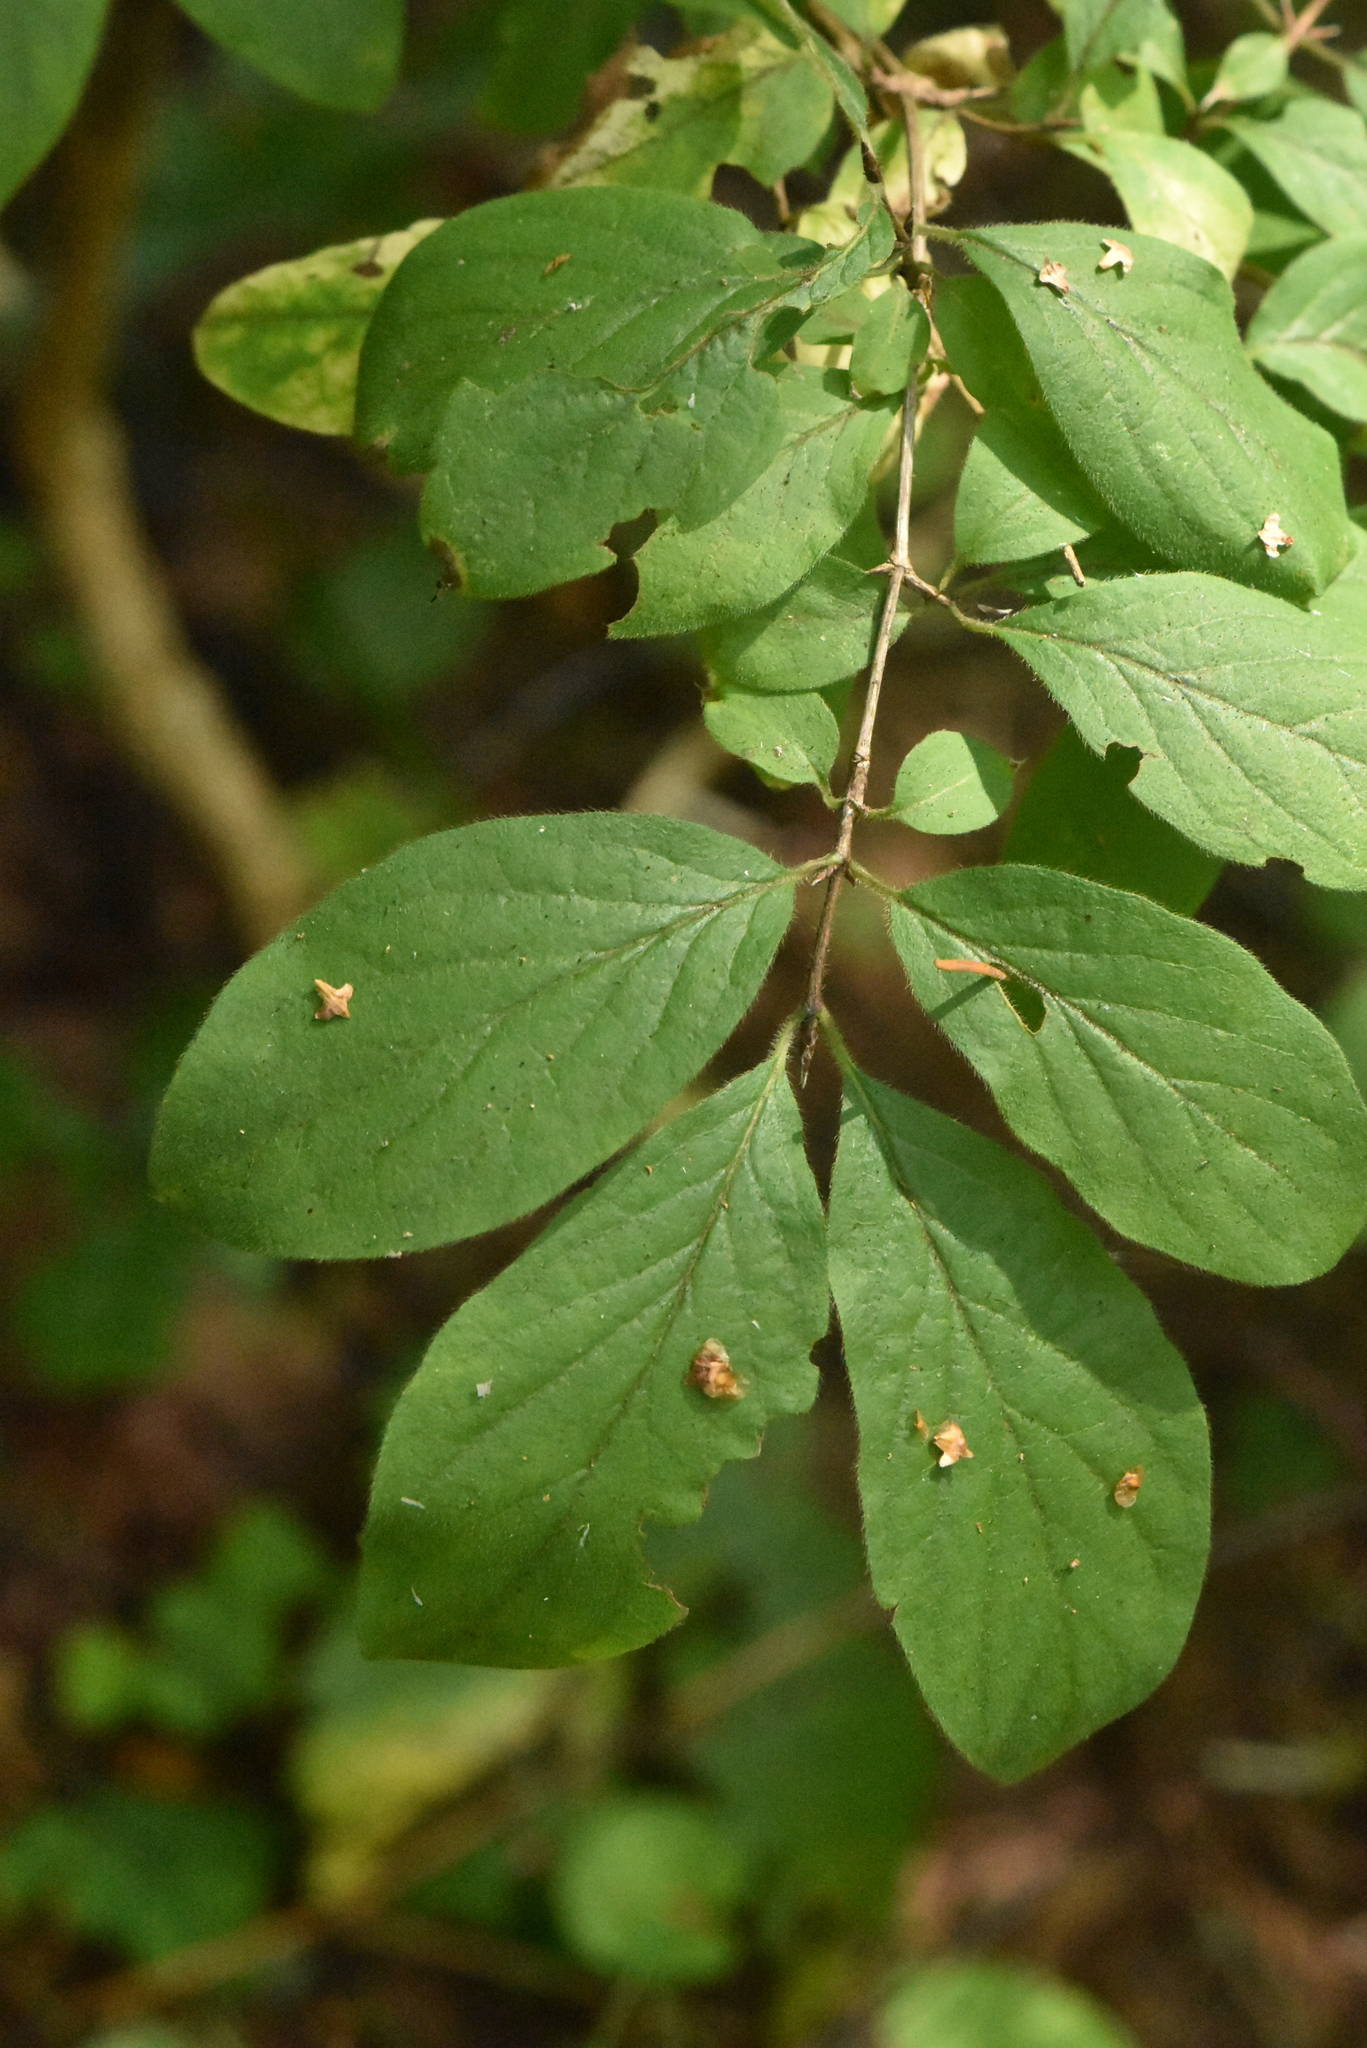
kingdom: Plantae
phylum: Tracheophyta
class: Magnoliopsida
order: Dipsacales
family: Caprifoliaceae
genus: Lonicera
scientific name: Lonicera xylosteum
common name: Fly honeysuckle
